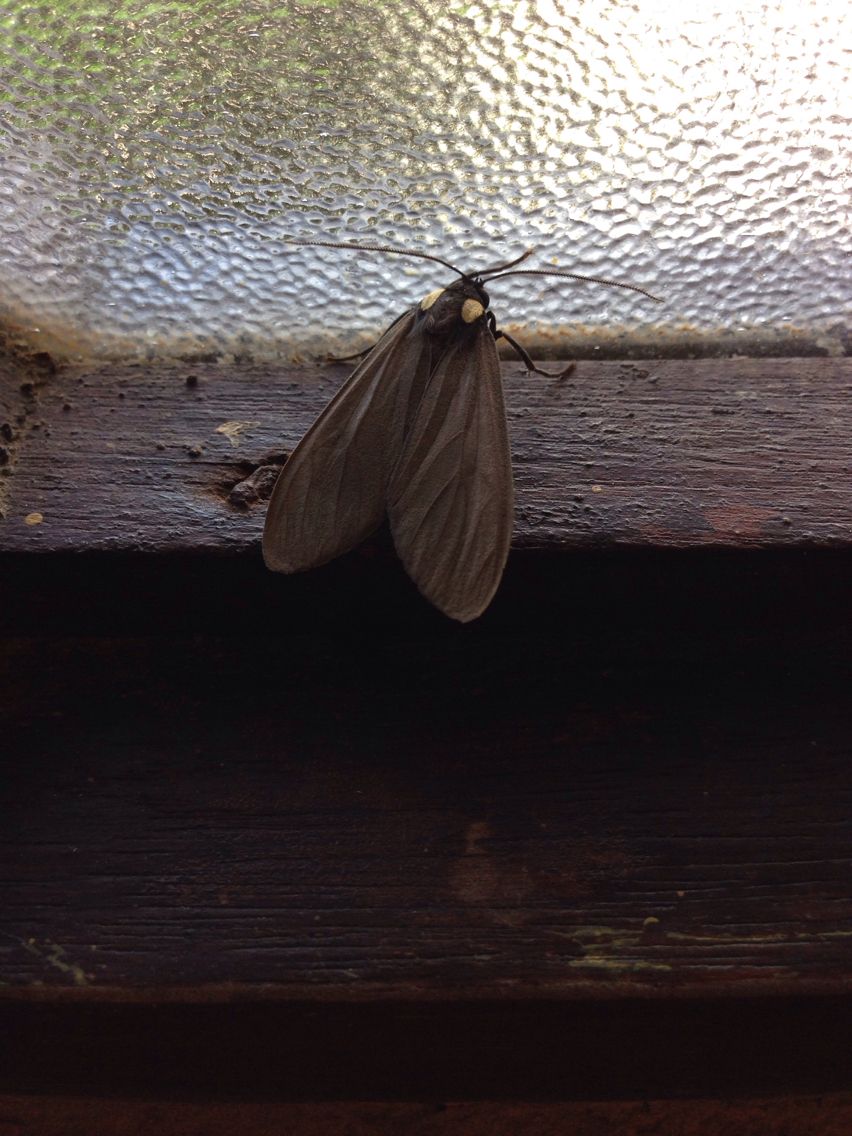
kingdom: Animalia
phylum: Arthropoda
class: Insecta
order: Lepidoptera
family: Erebidae
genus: Opharus
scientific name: Opharus bimaculata
